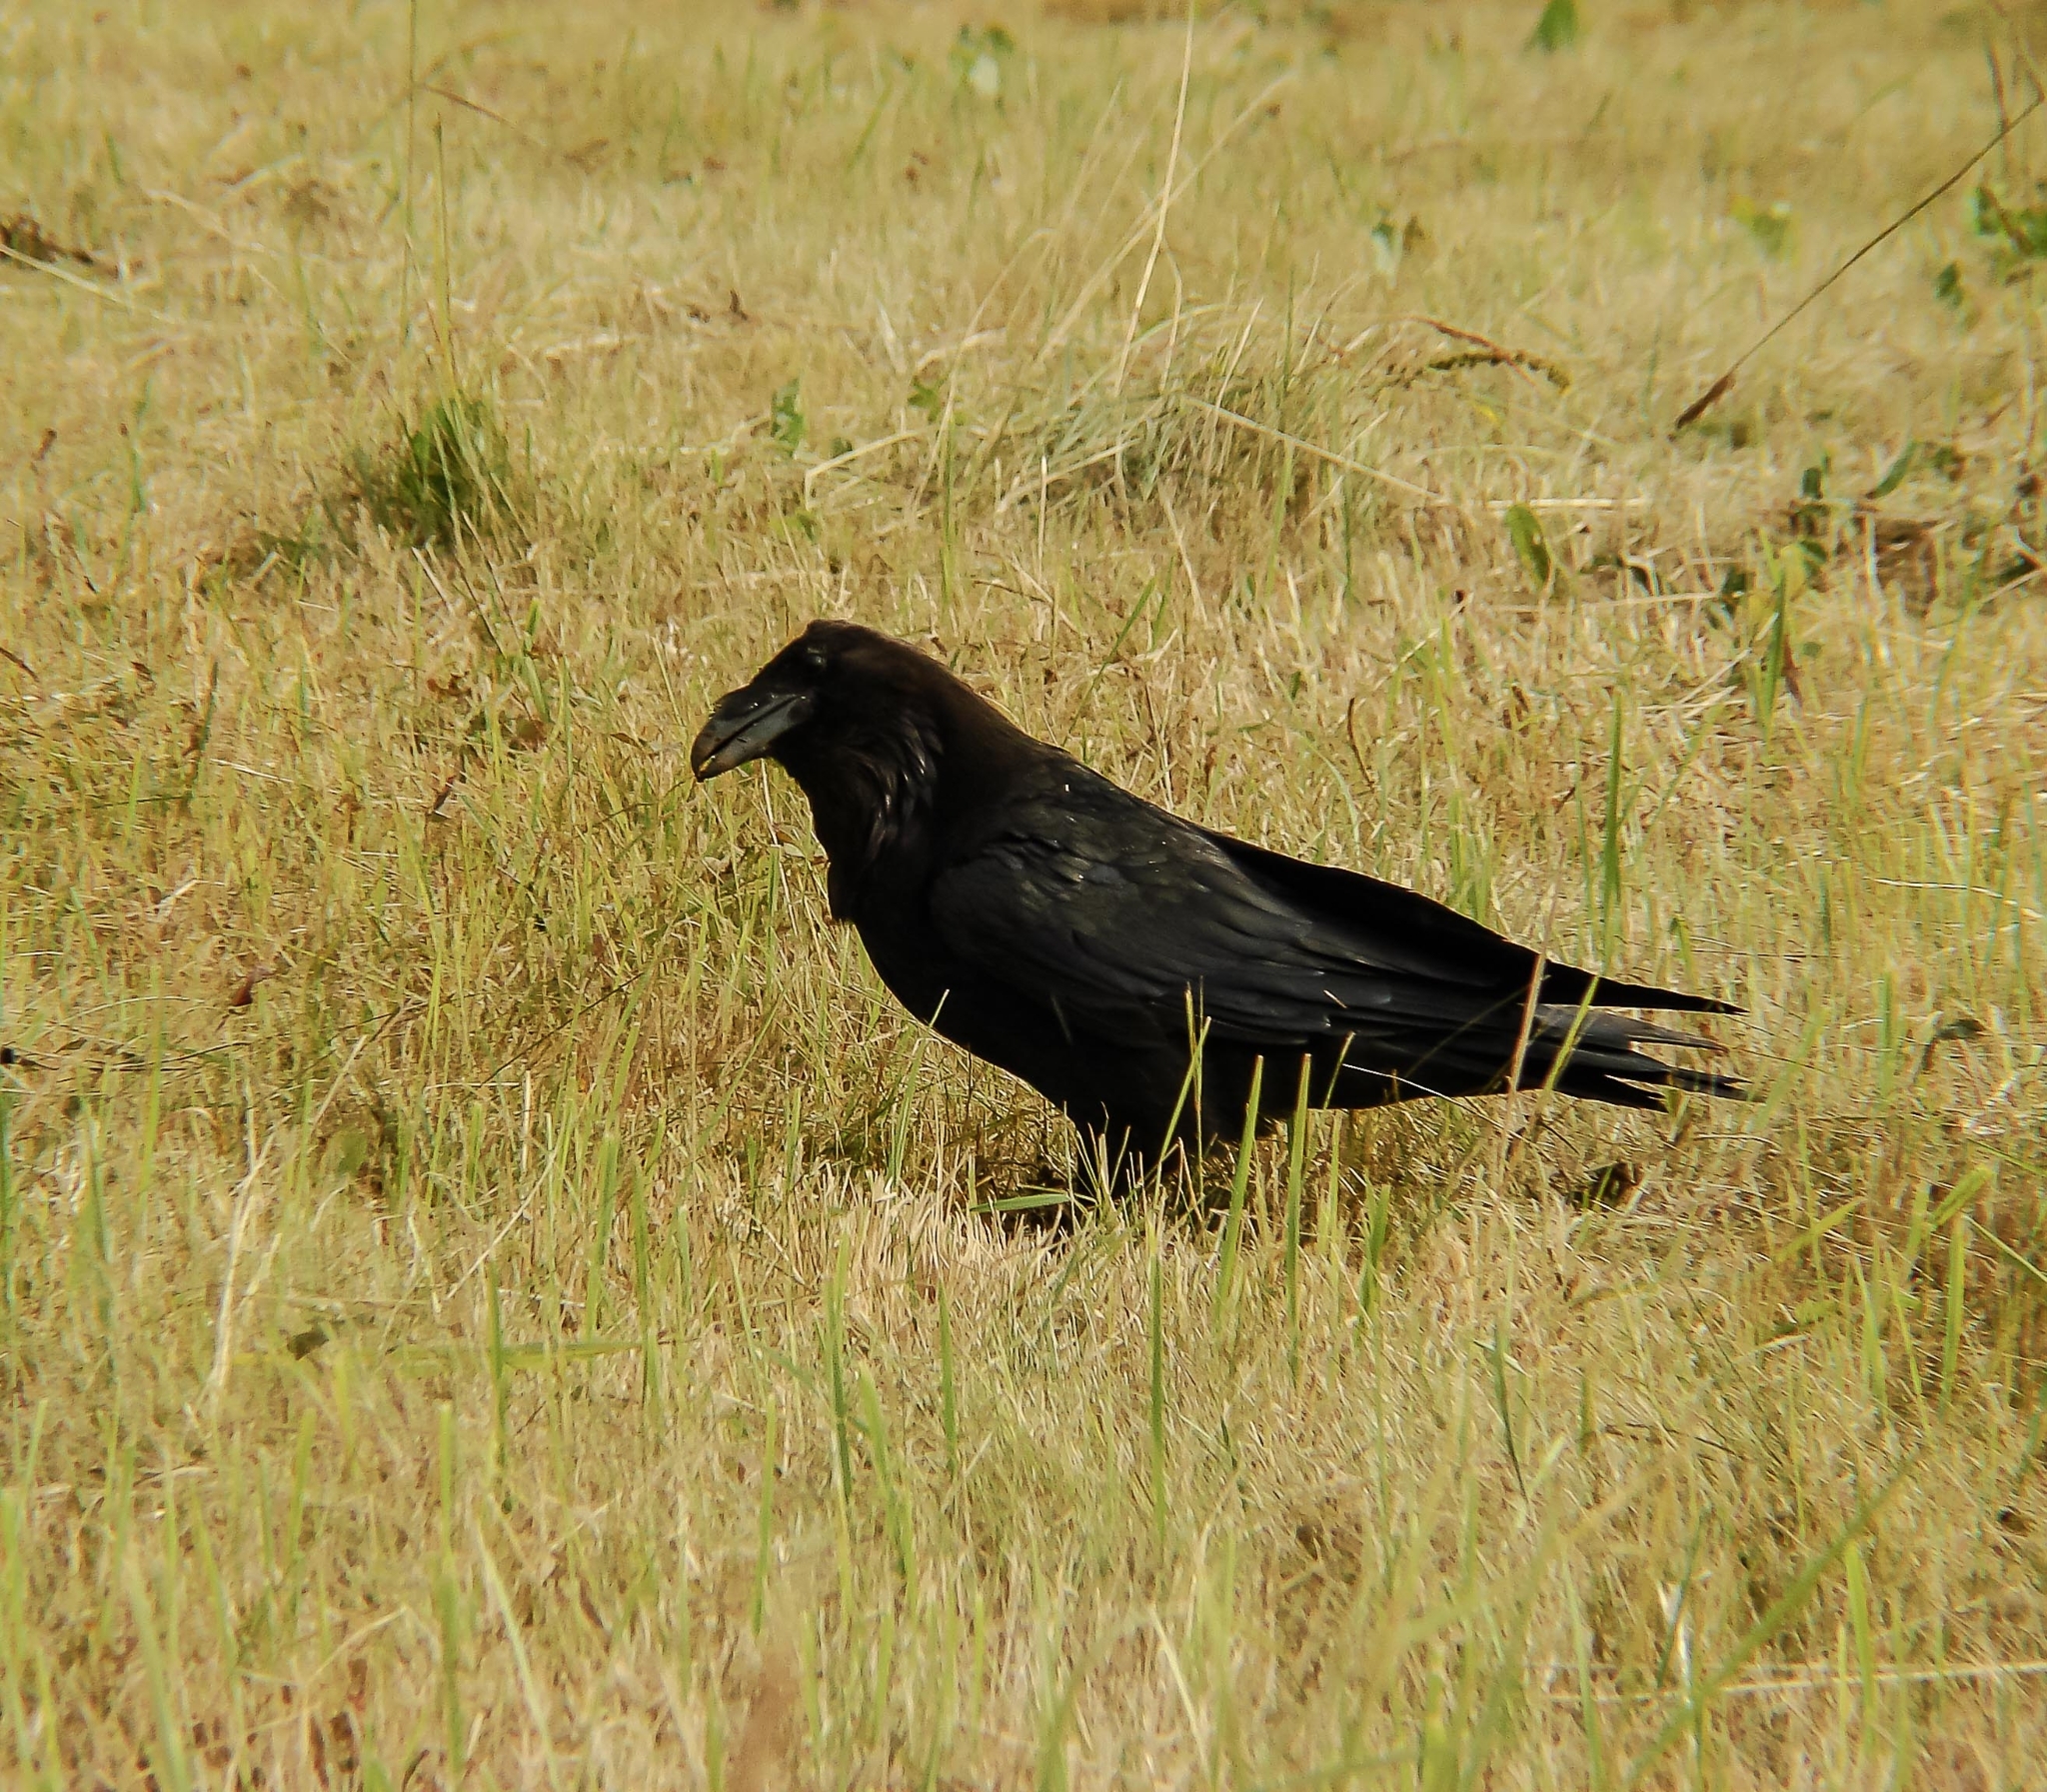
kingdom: Animalia
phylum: Chordata
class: Aves
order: Passeriformes
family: Corvidae
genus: Corvus
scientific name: Corvus corax
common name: Common raven
